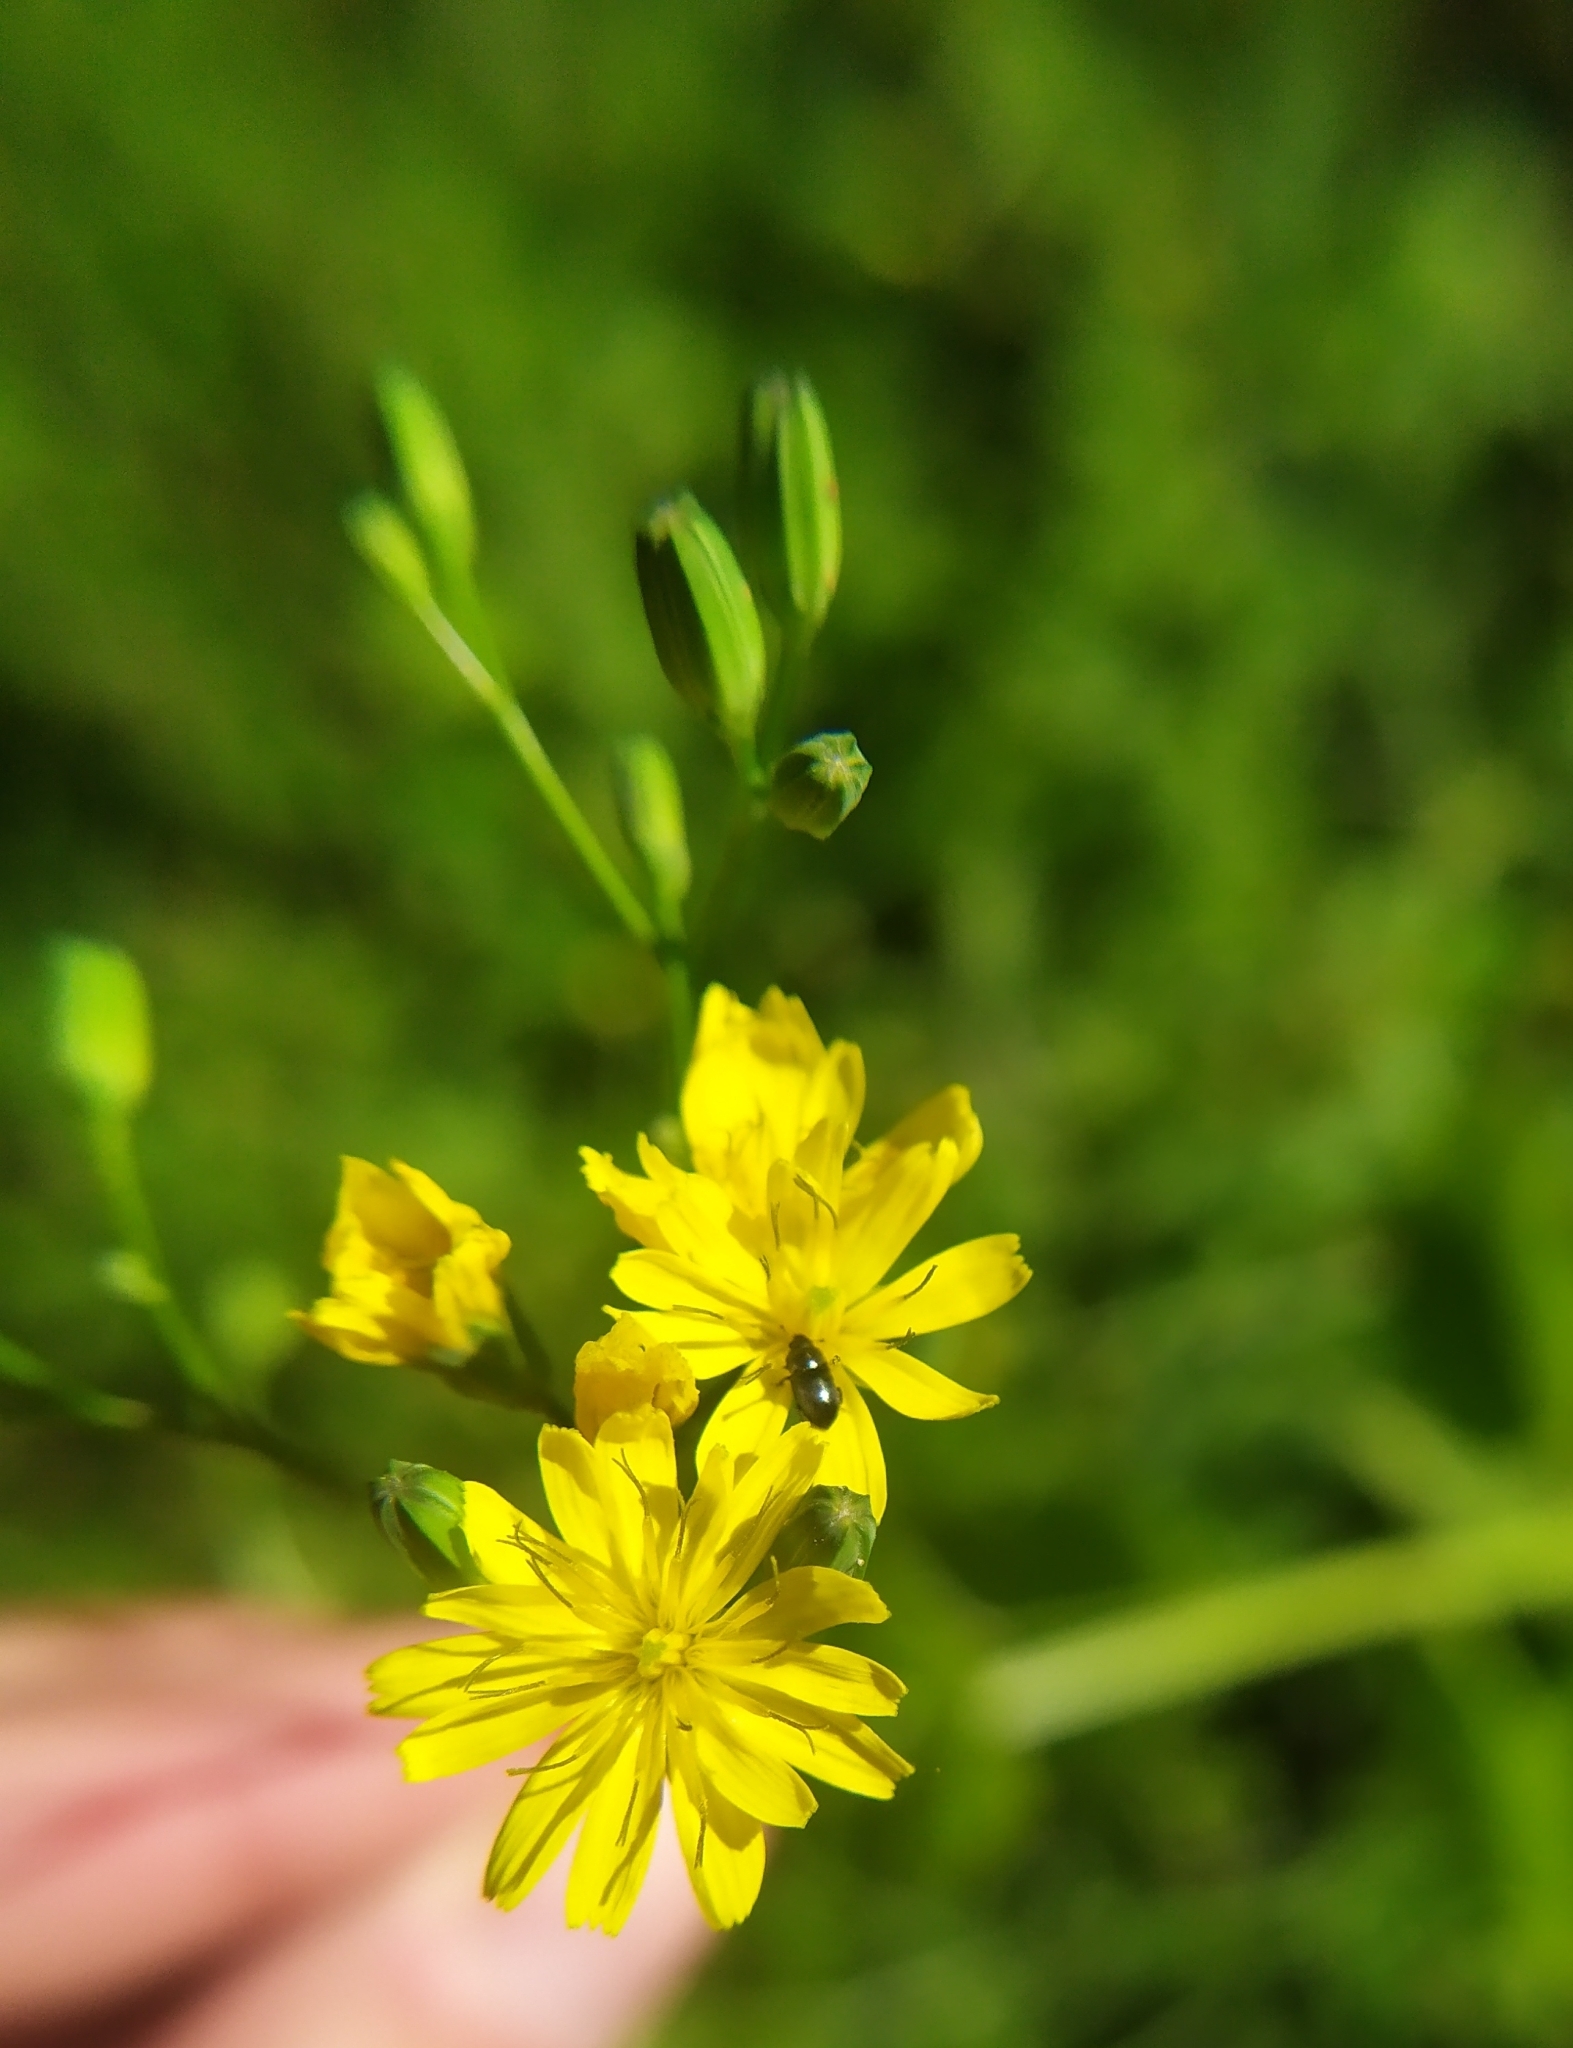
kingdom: Plantae
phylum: Tracheophyta
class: Magnoliopsida
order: Asterales
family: Asteraceae
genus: Lapsana
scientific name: Lapsana communis
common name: Nipplewort
